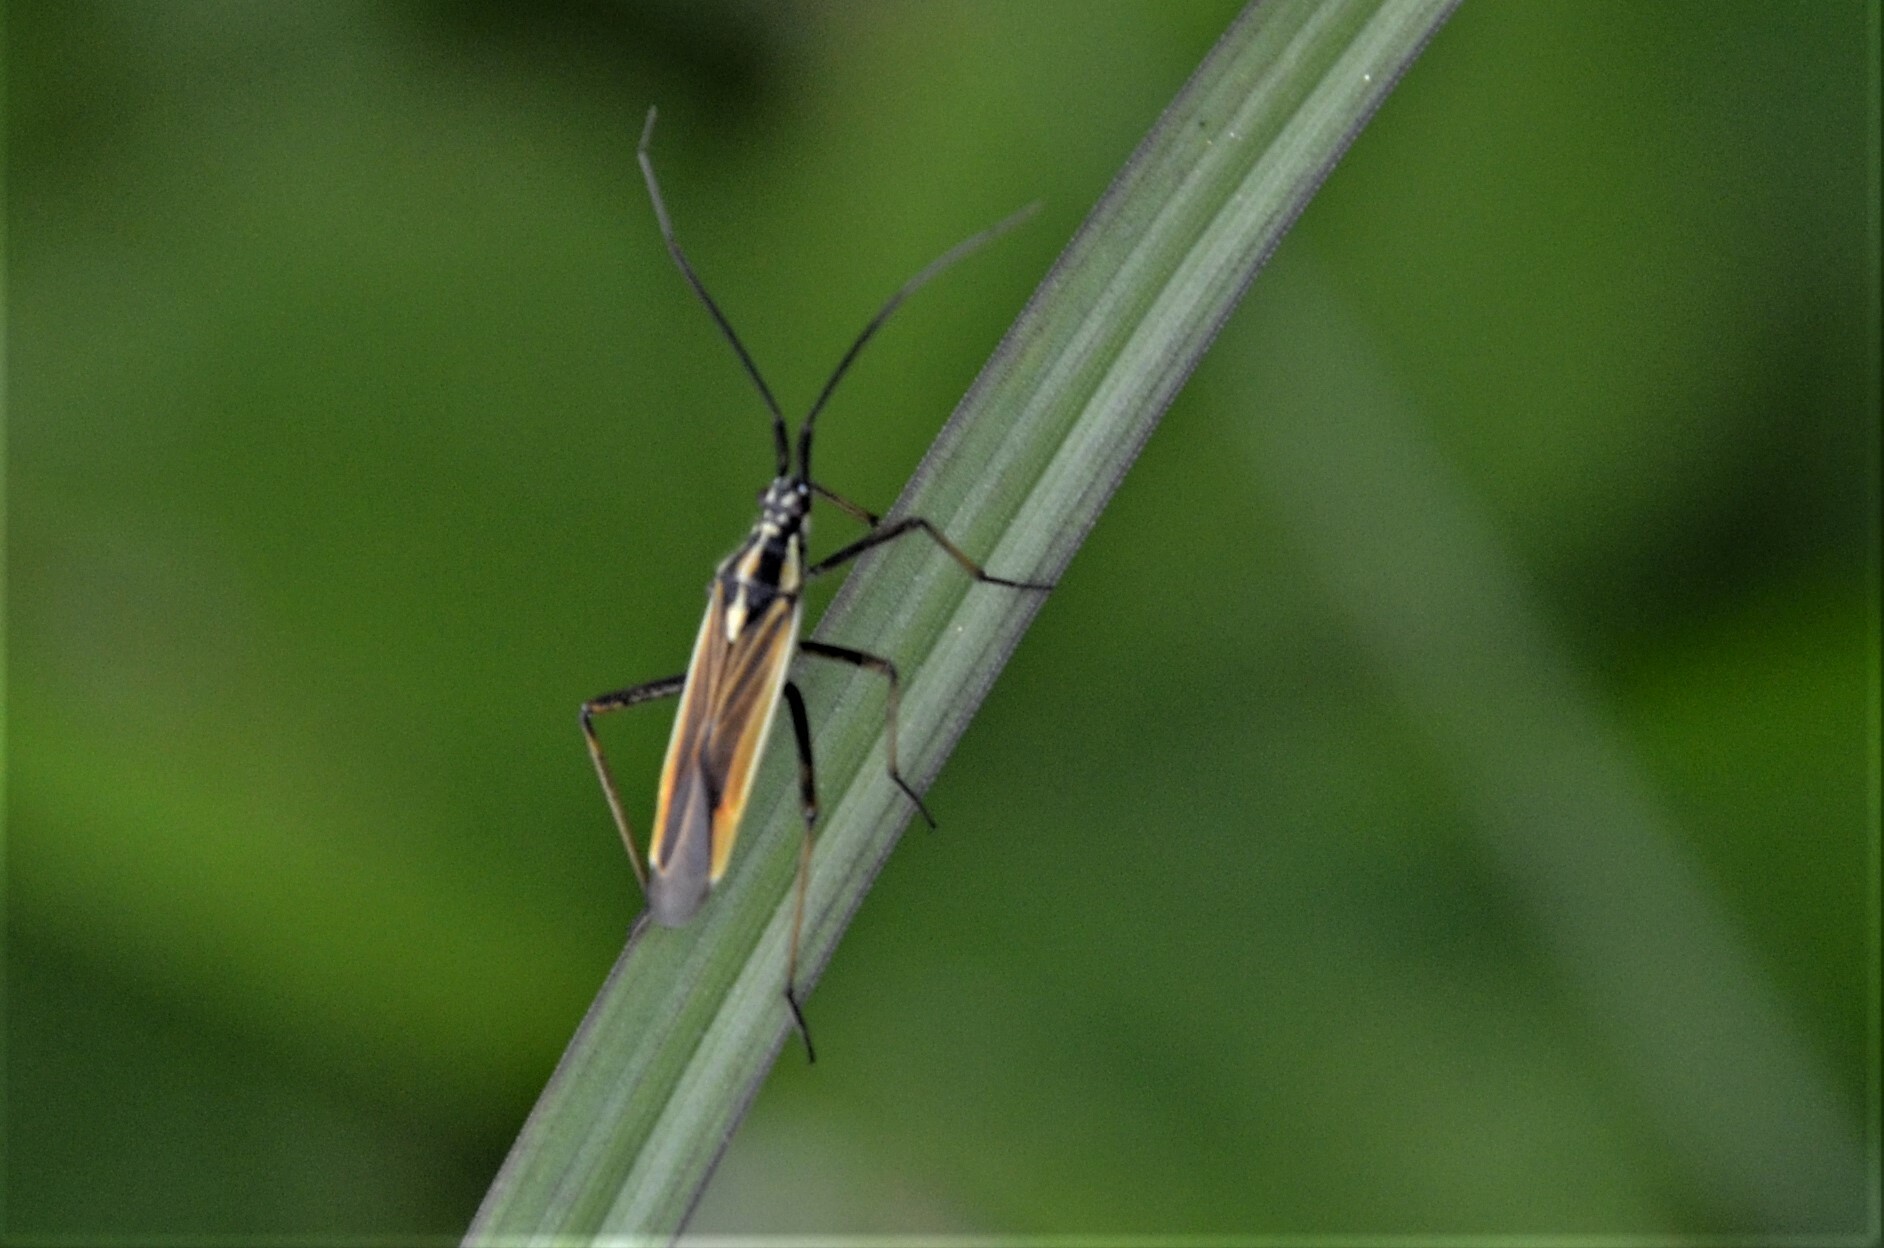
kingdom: Animalia
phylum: Arthropoda
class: Insecta
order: Hemiptera
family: Miridae
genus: Leptopterna
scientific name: Leptopterna dolabrata
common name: Meadow plant bug
